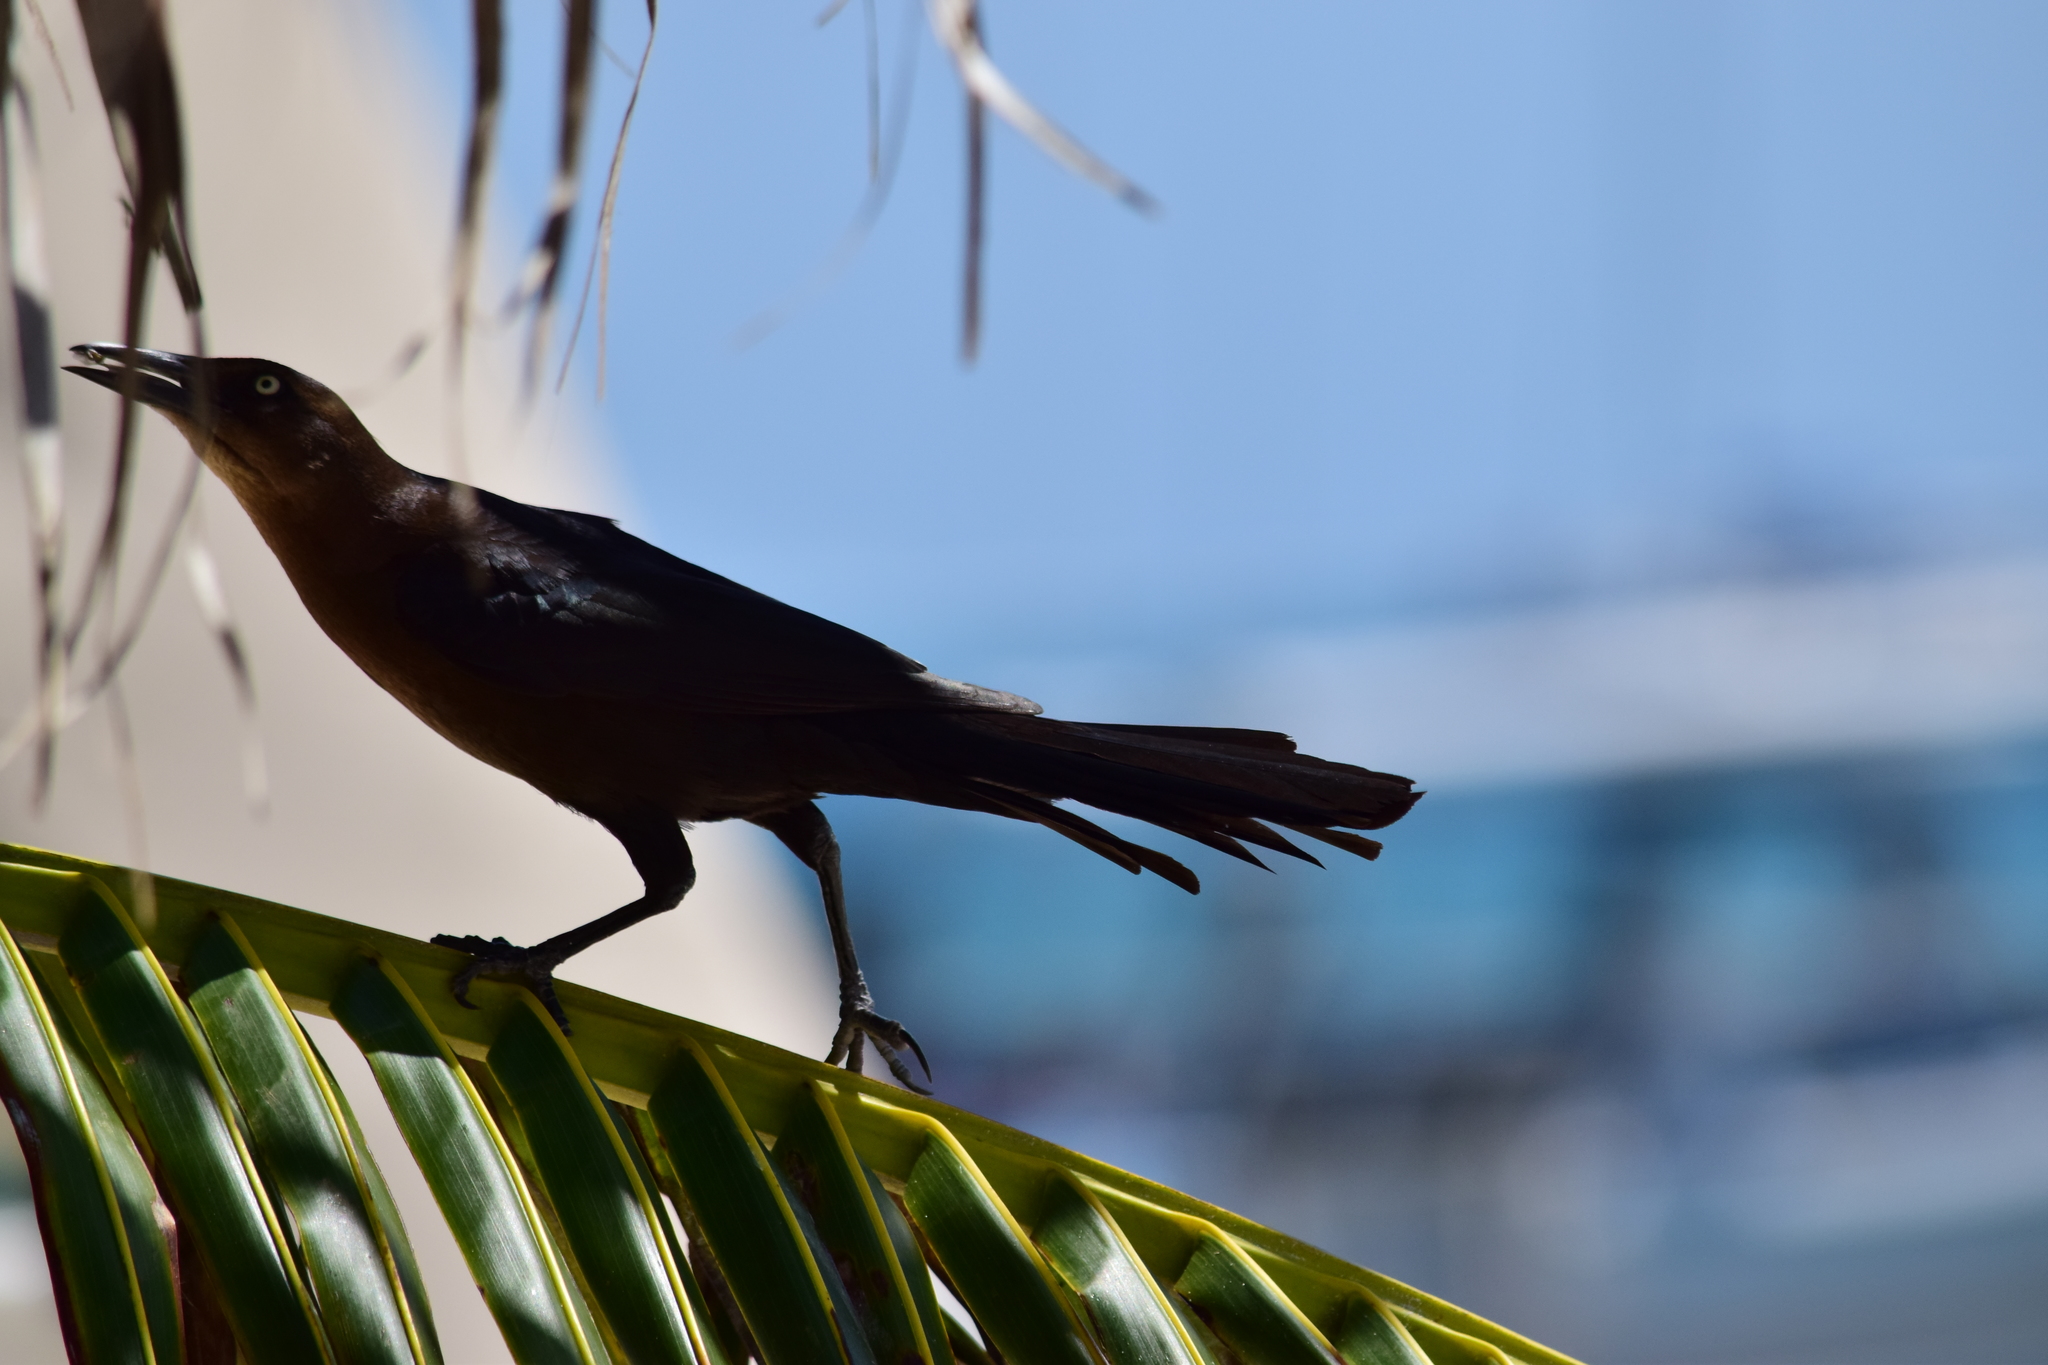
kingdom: Animalia
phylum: Chordata
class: Aves
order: Passeriformes
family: Icteridae
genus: Quiscalus
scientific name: Quiscalus mexicanus
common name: Great-tailed grackle
